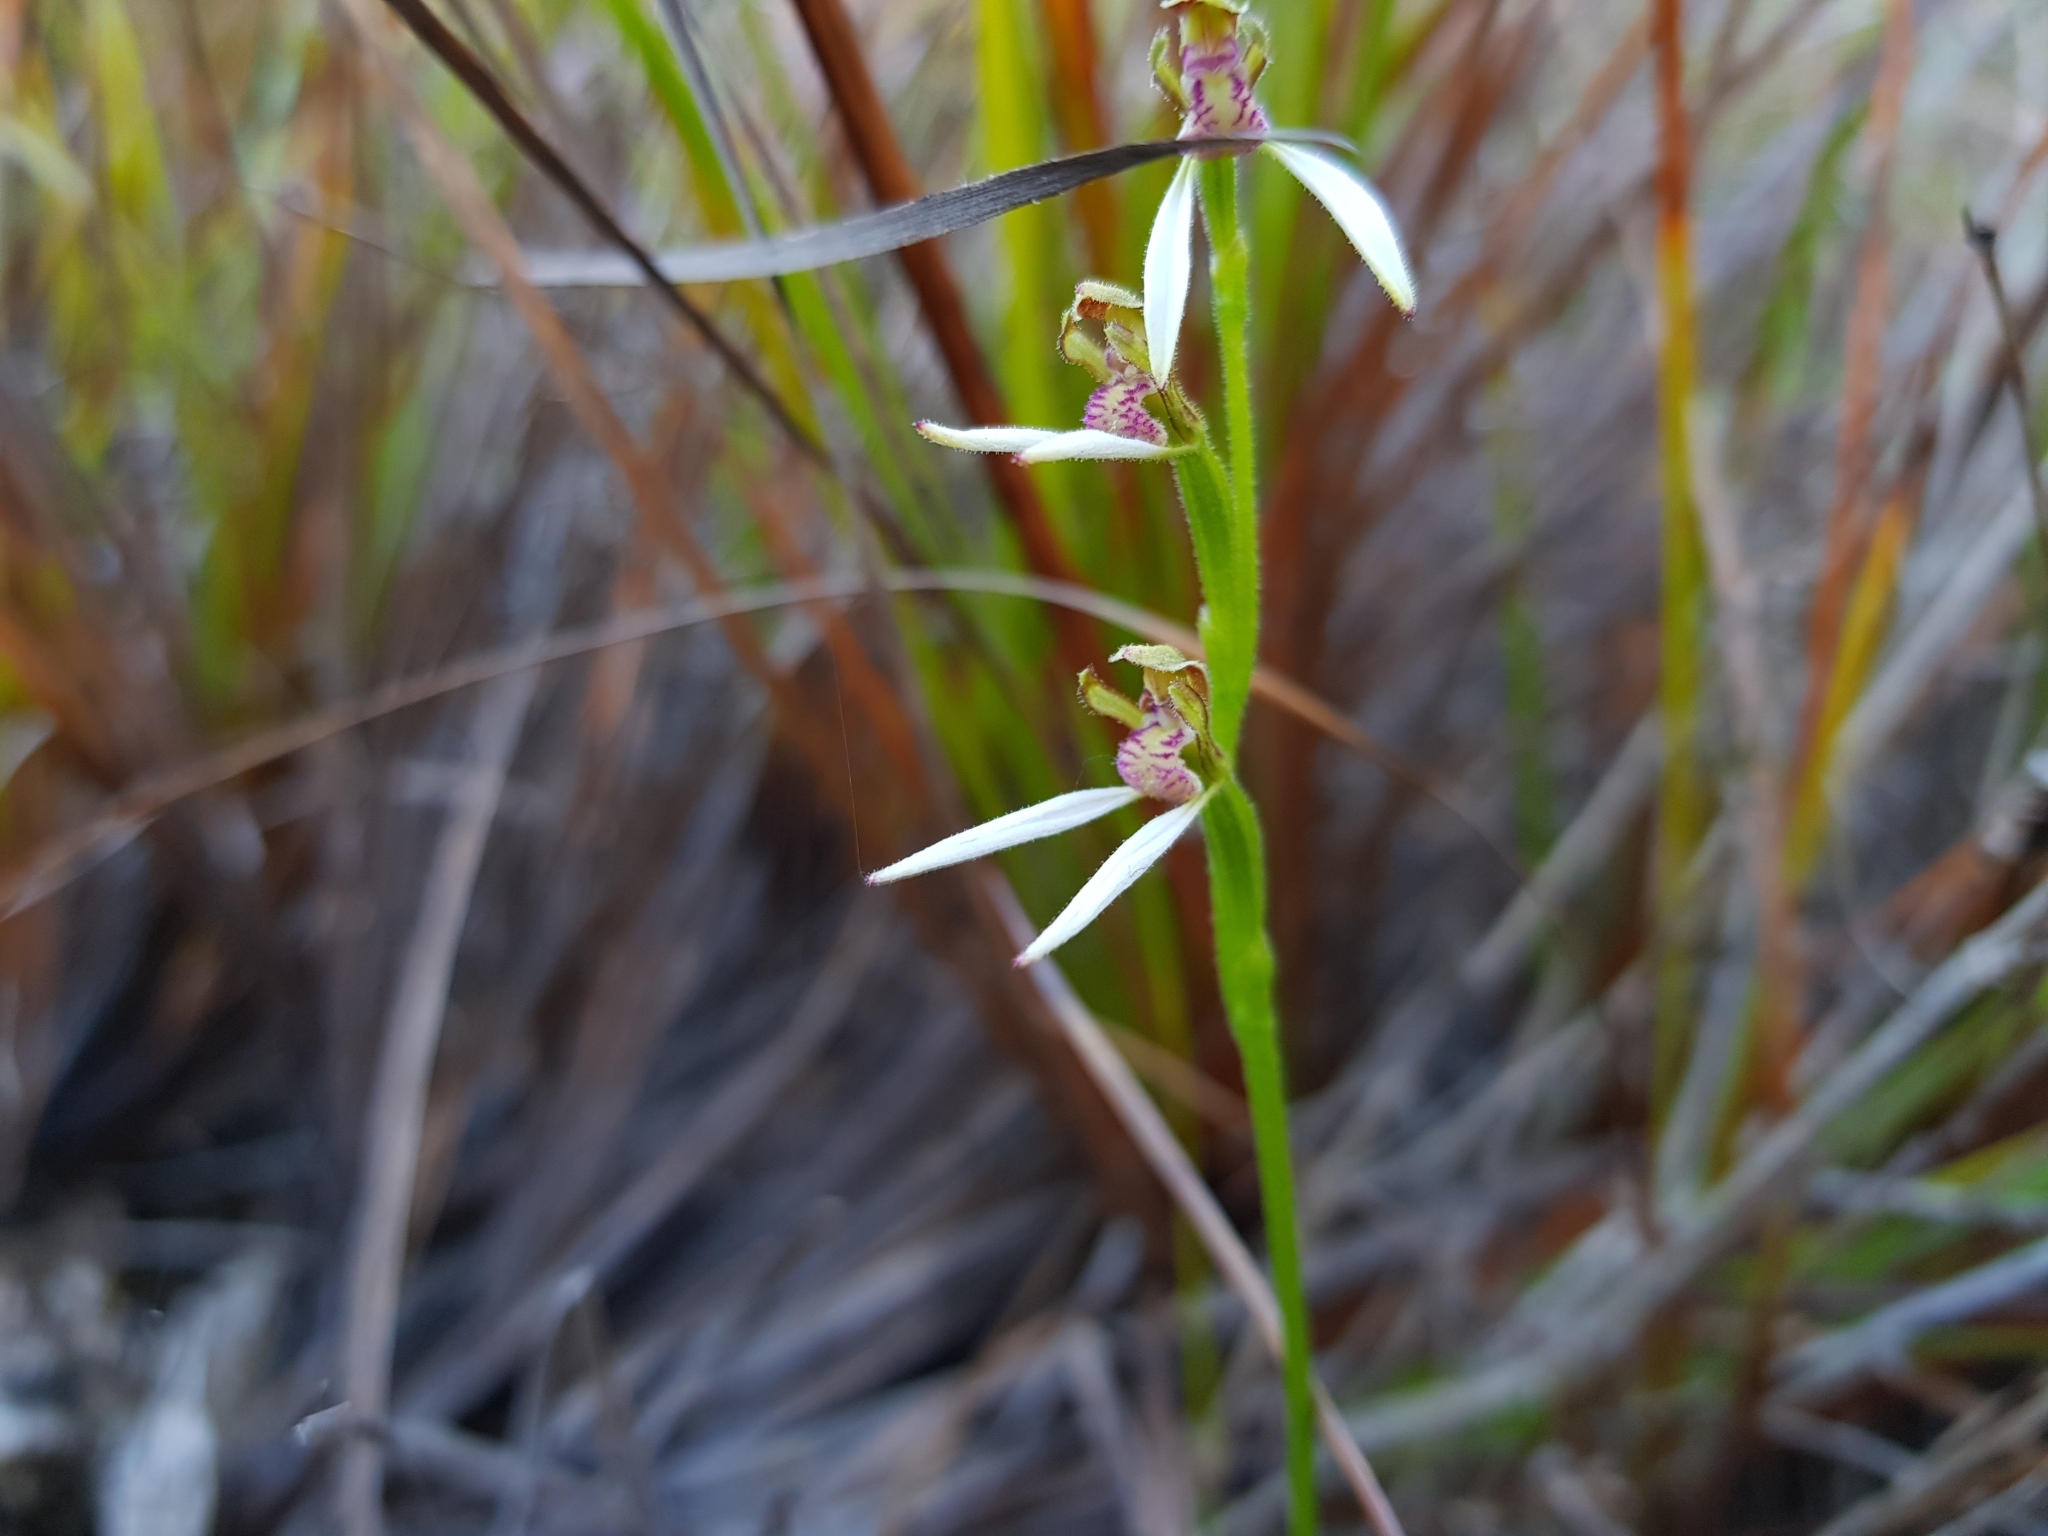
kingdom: Plantae
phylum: Tracheophyta
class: Liliopsida
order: Asparagales
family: Orchidaceae
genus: Eriochilus
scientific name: Eriochilus dilatatus
